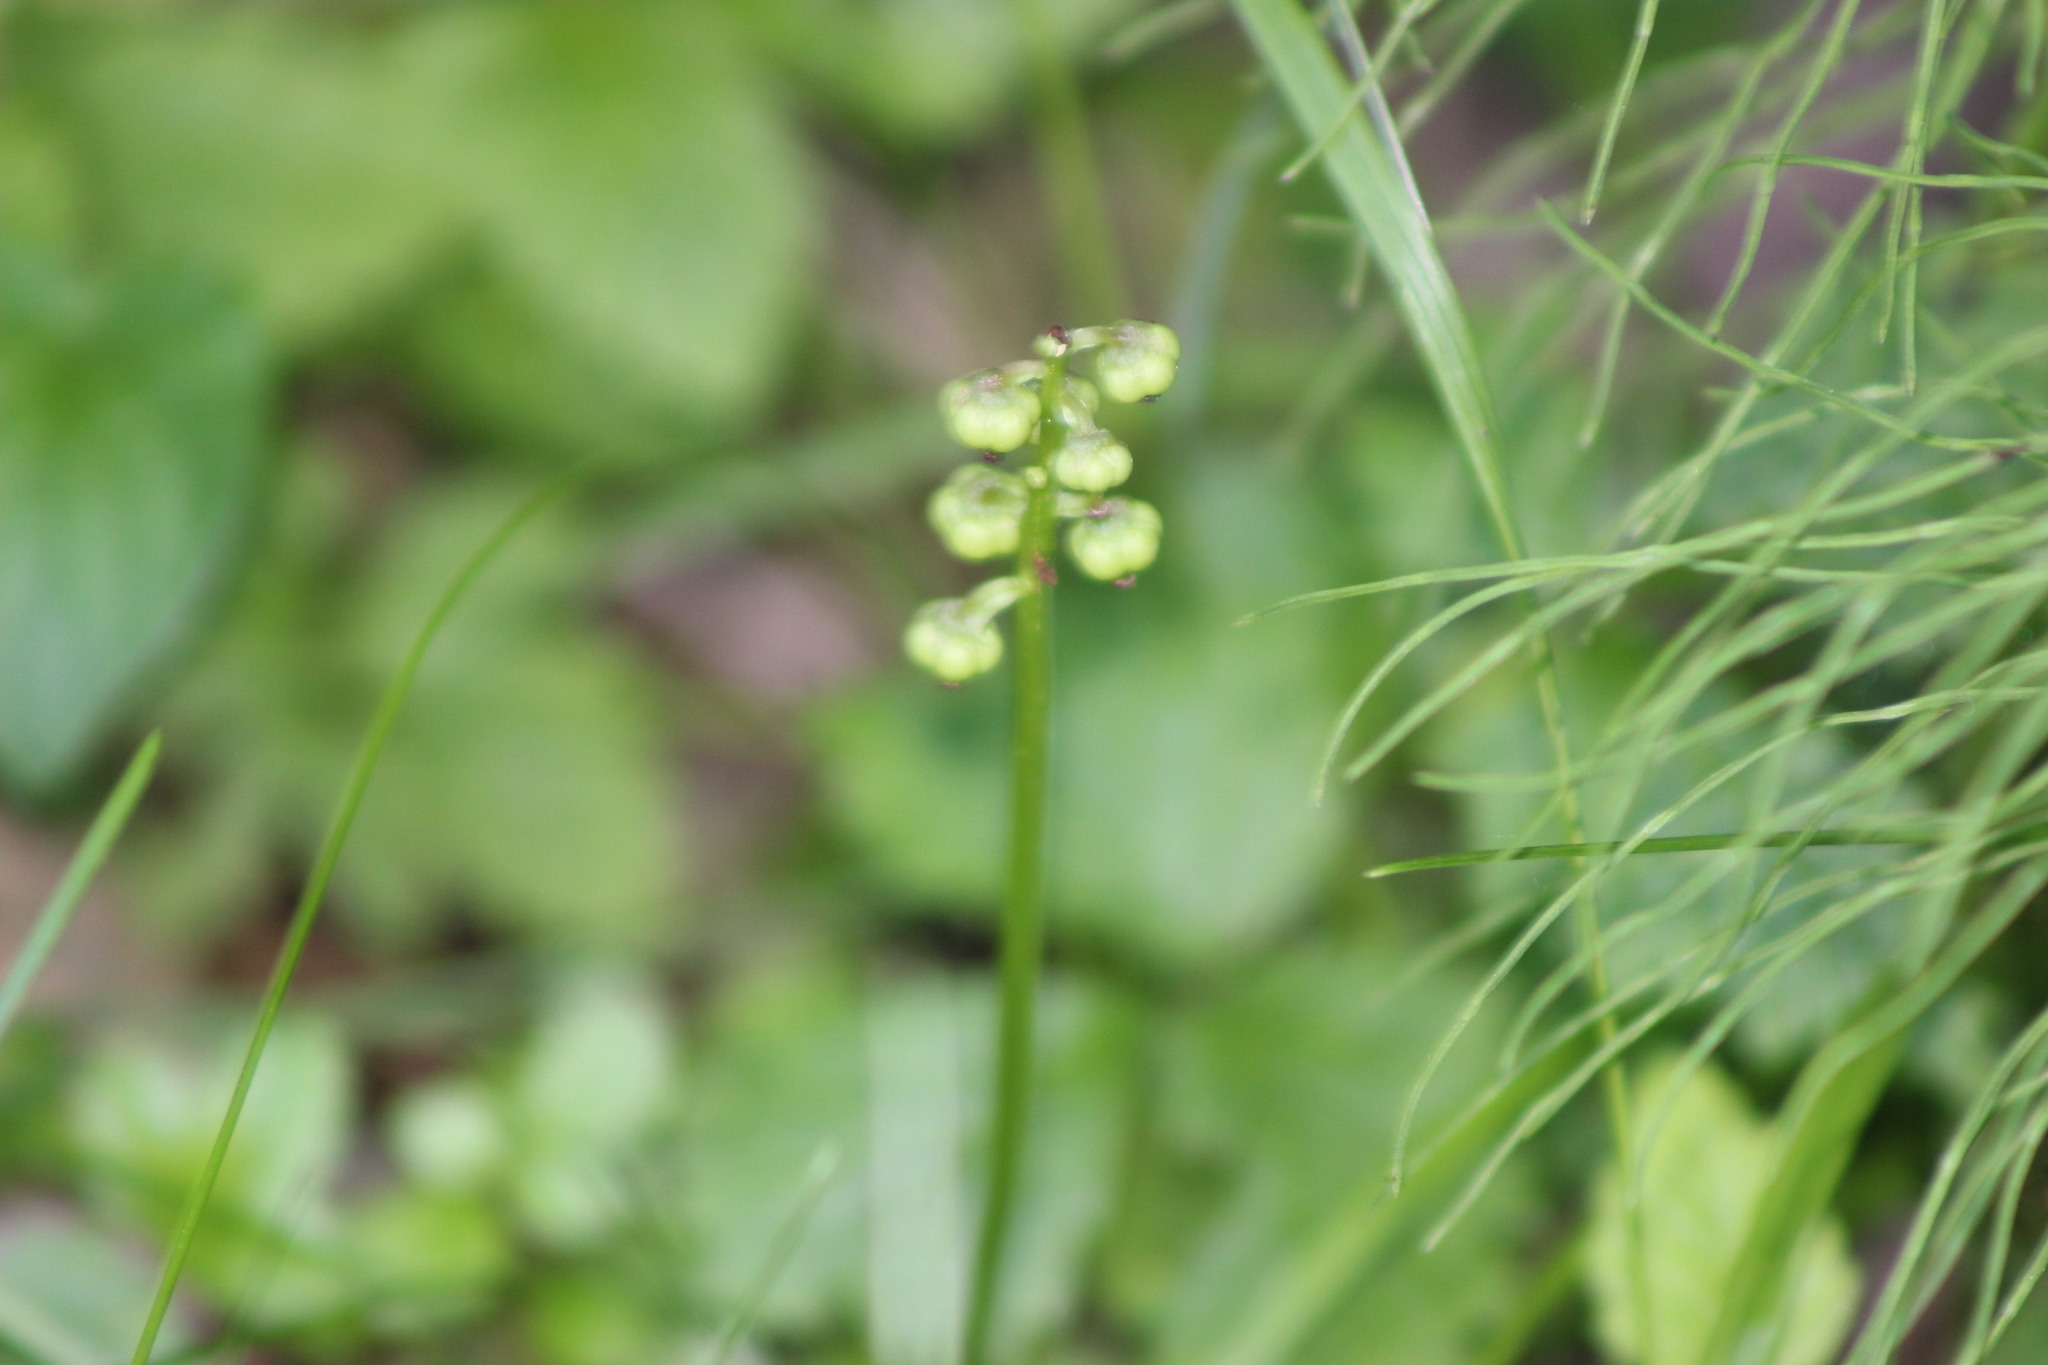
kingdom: Plantae
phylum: Tracheophyta
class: Magnoliopsida
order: Ericales
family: Ericaceae
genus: Pyrola
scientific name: Pyrola minor
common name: Common wintergreen
